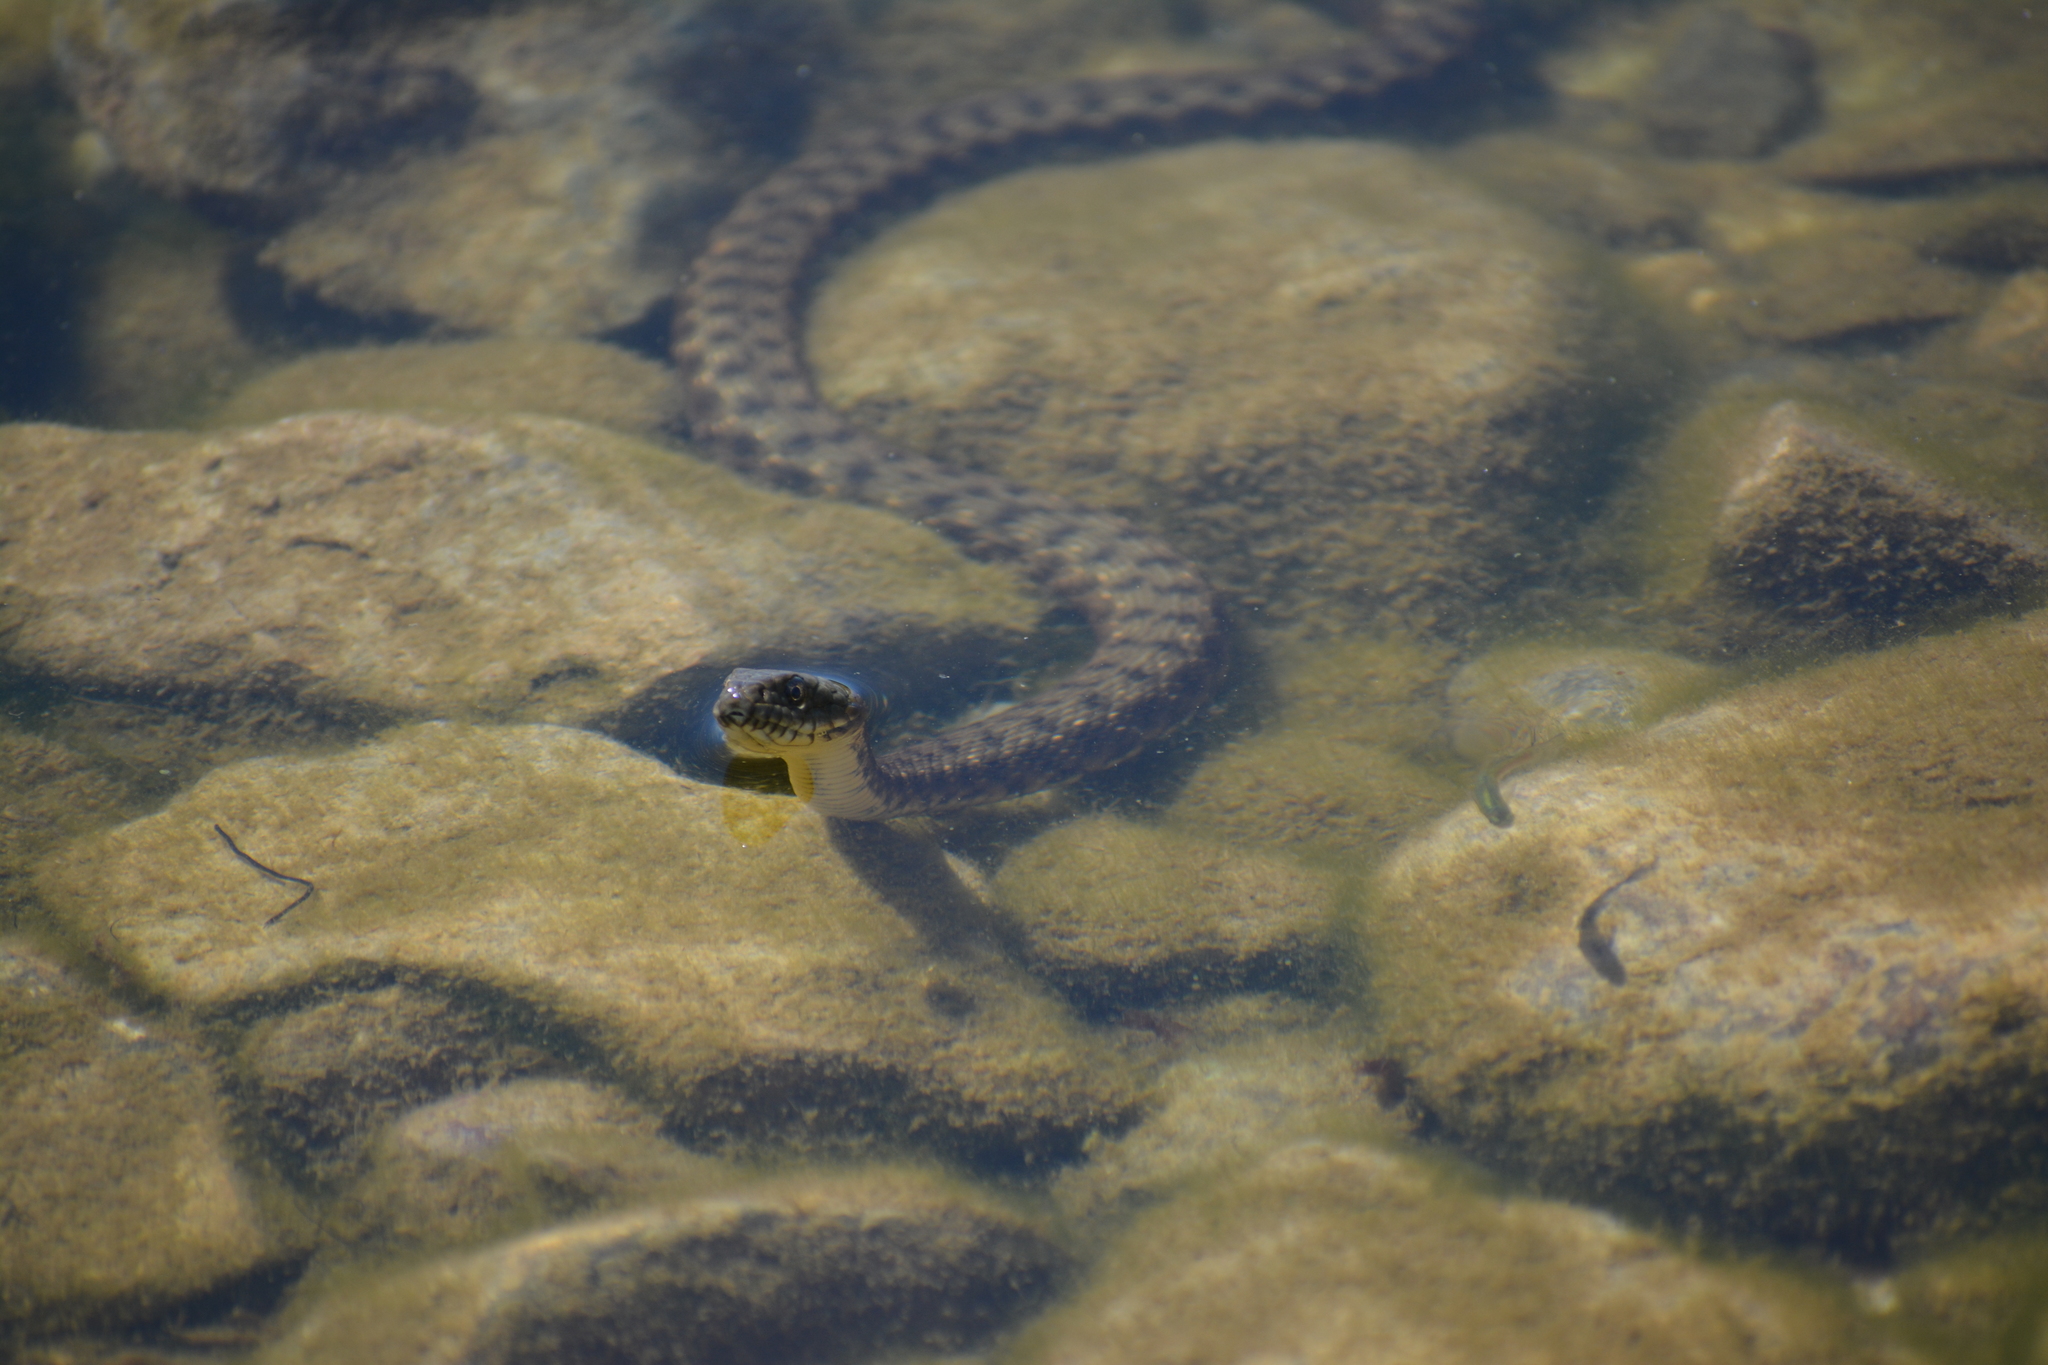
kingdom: Animalia
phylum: Chordata
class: Squamata
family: Colubridae
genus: Natrix
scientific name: Natrix tessellata
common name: Dice snake
